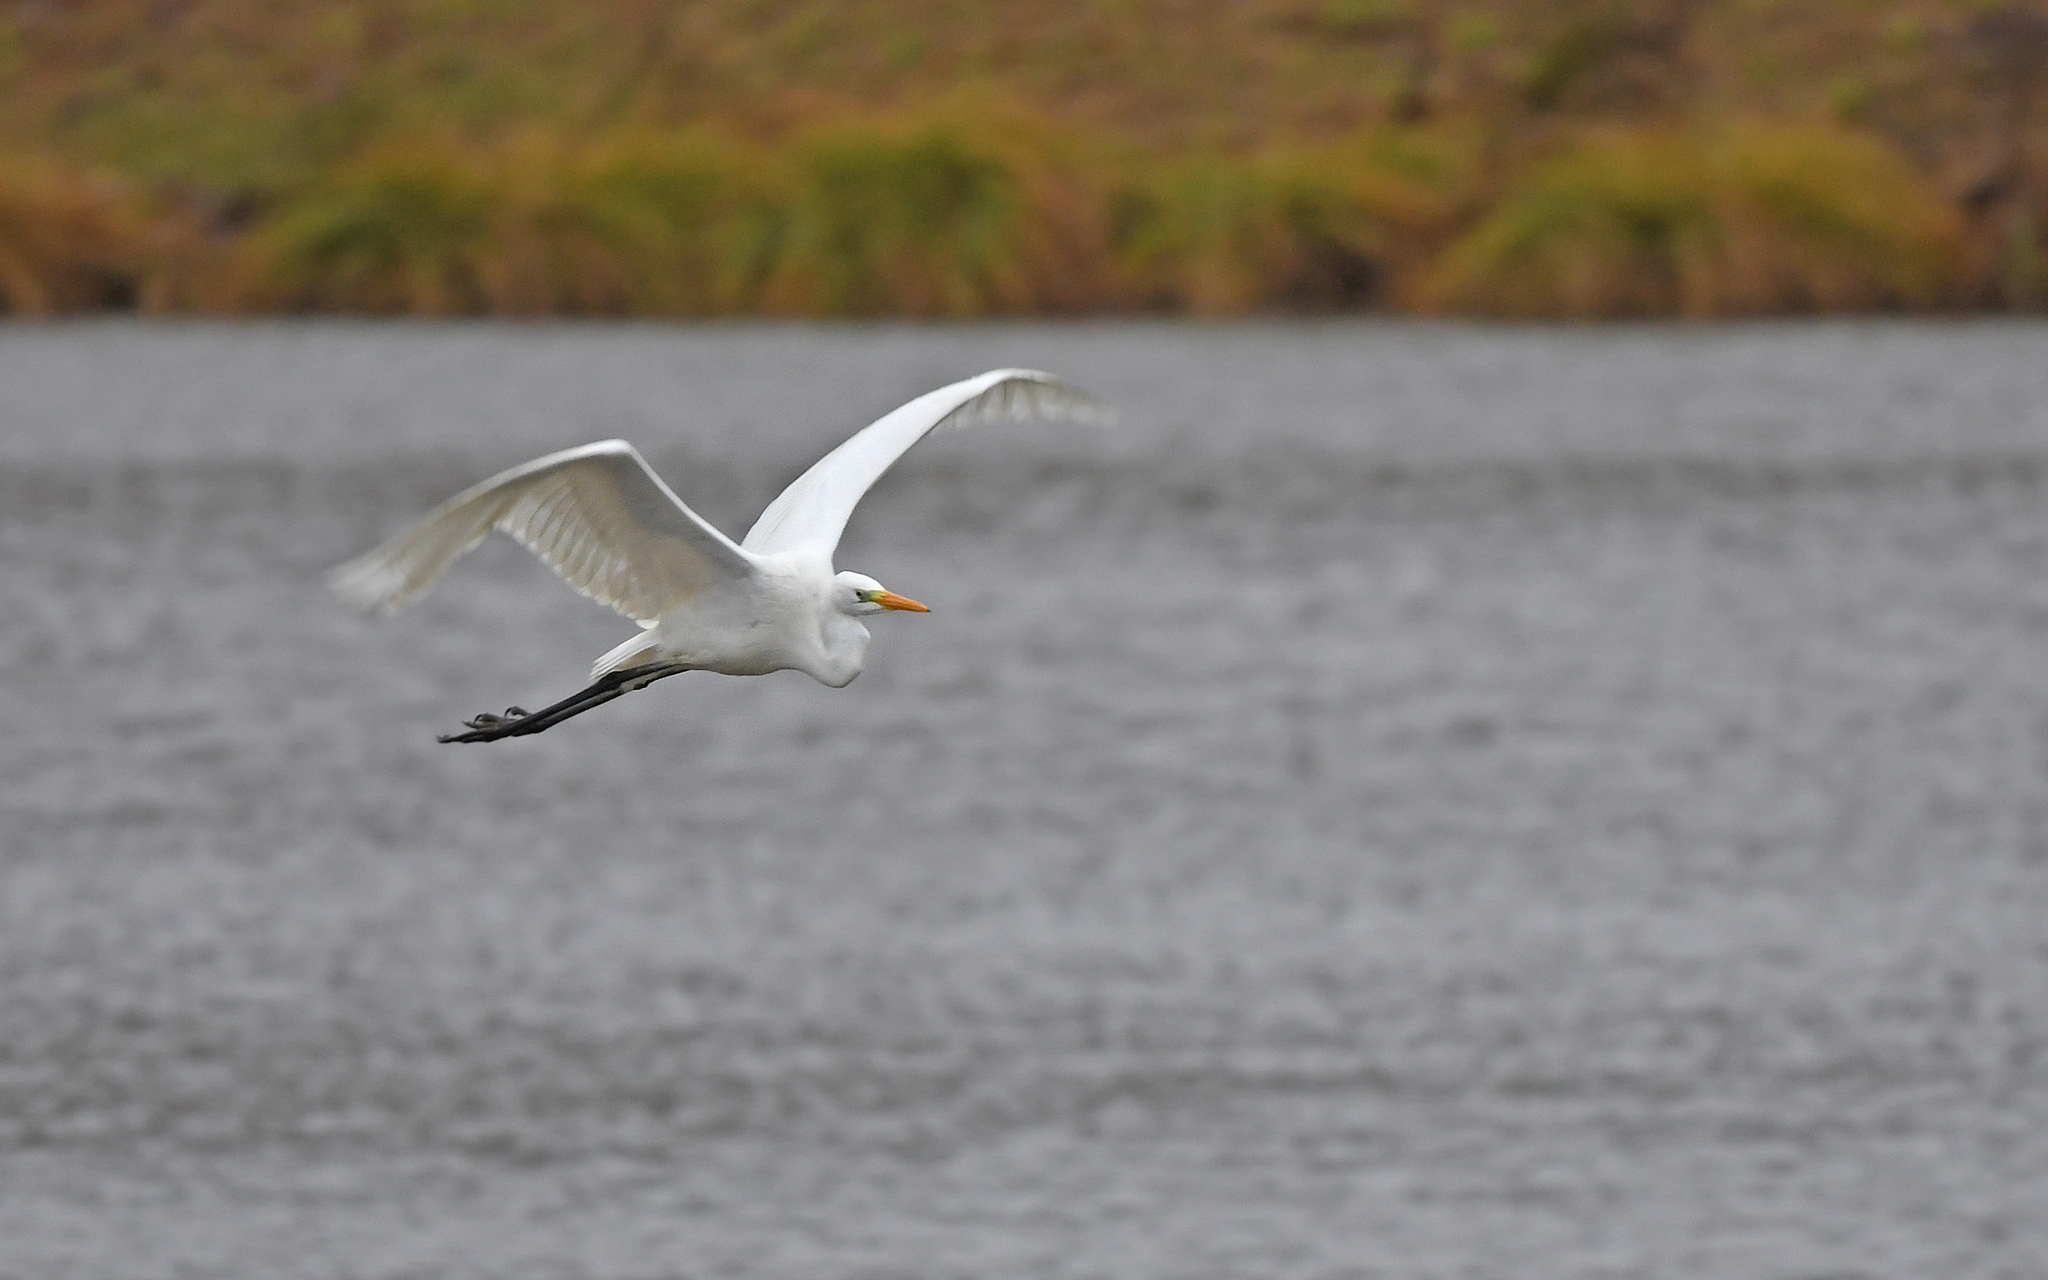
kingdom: Animalia
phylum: Chordata
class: Aves
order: Pelecaniformes
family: Ardeidae
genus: Ardea
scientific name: Ardea alba
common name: Great egret
